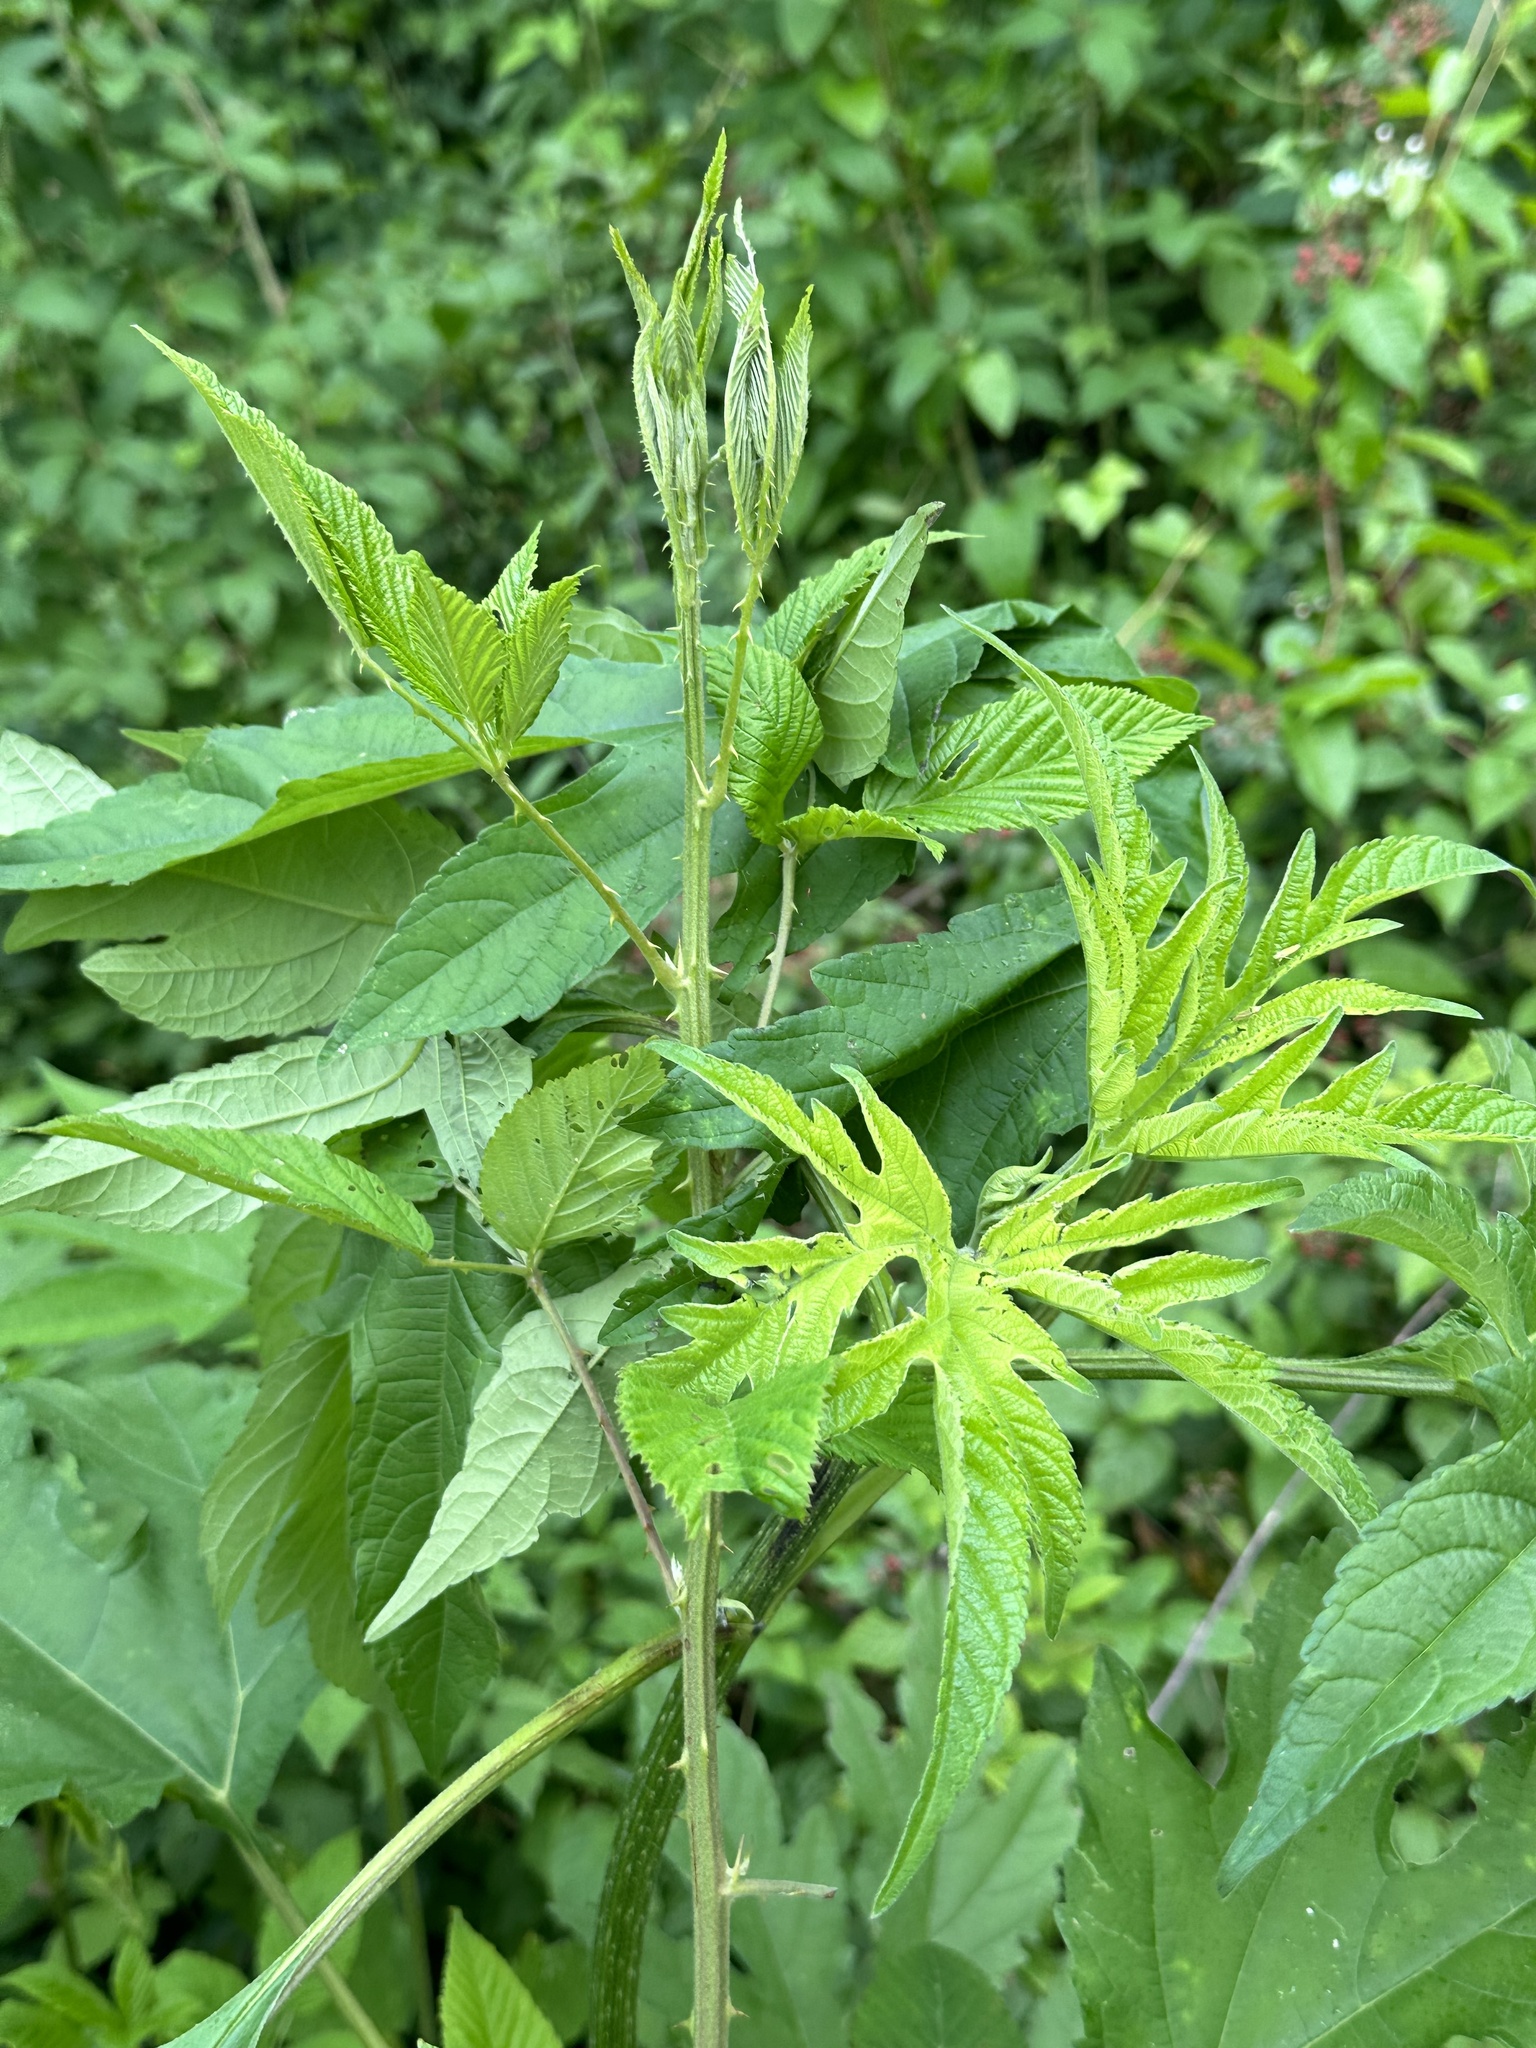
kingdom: Plantae
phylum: Tracheophyta
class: Magnoliopsida
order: Asterales
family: Asteraceae
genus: Ambrosia
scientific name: Ambrosia trifida
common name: Giant ragweed
